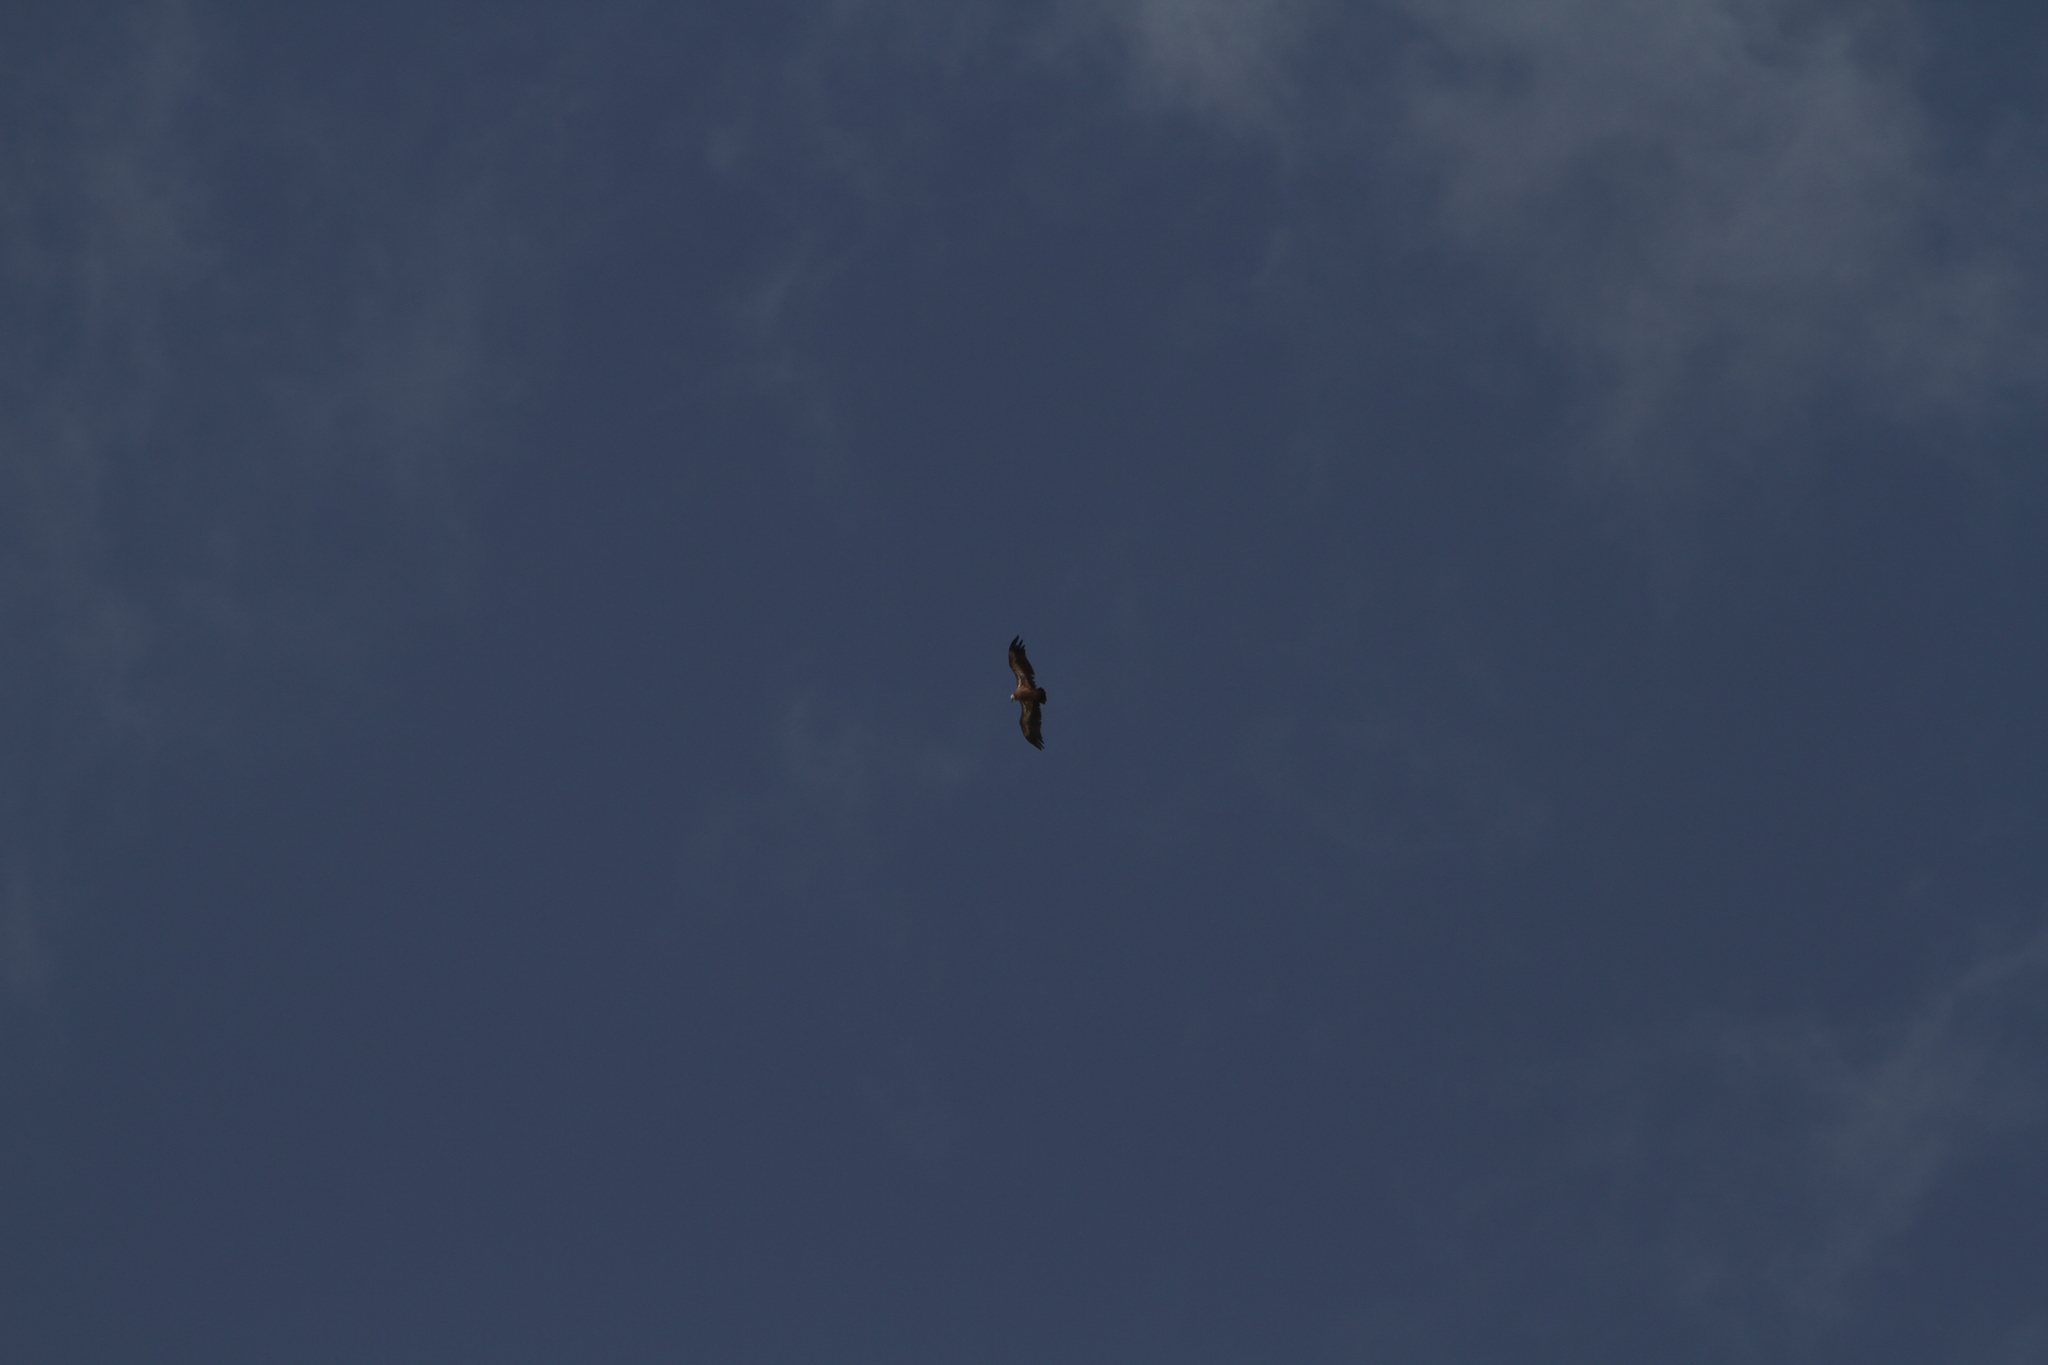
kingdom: Animalia
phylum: Chordata
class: Aves
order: Accipitriformes
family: Accipitridae
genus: Gyps
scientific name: Gyps fulvus
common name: Griffon vulture
